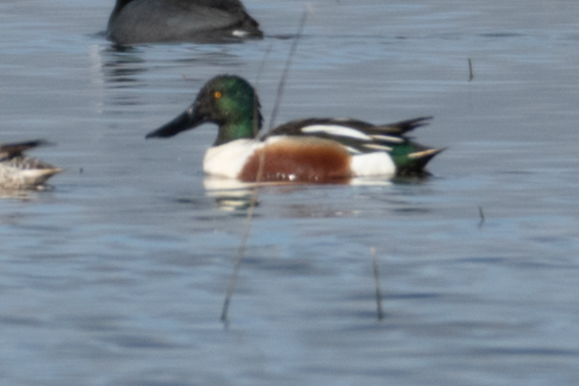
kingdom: Animalia
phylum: Chordata
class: Aves
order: Anseriformes
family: Anatidae
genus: Spatula
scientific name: Spatula clypeata
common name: Northern shoveler
